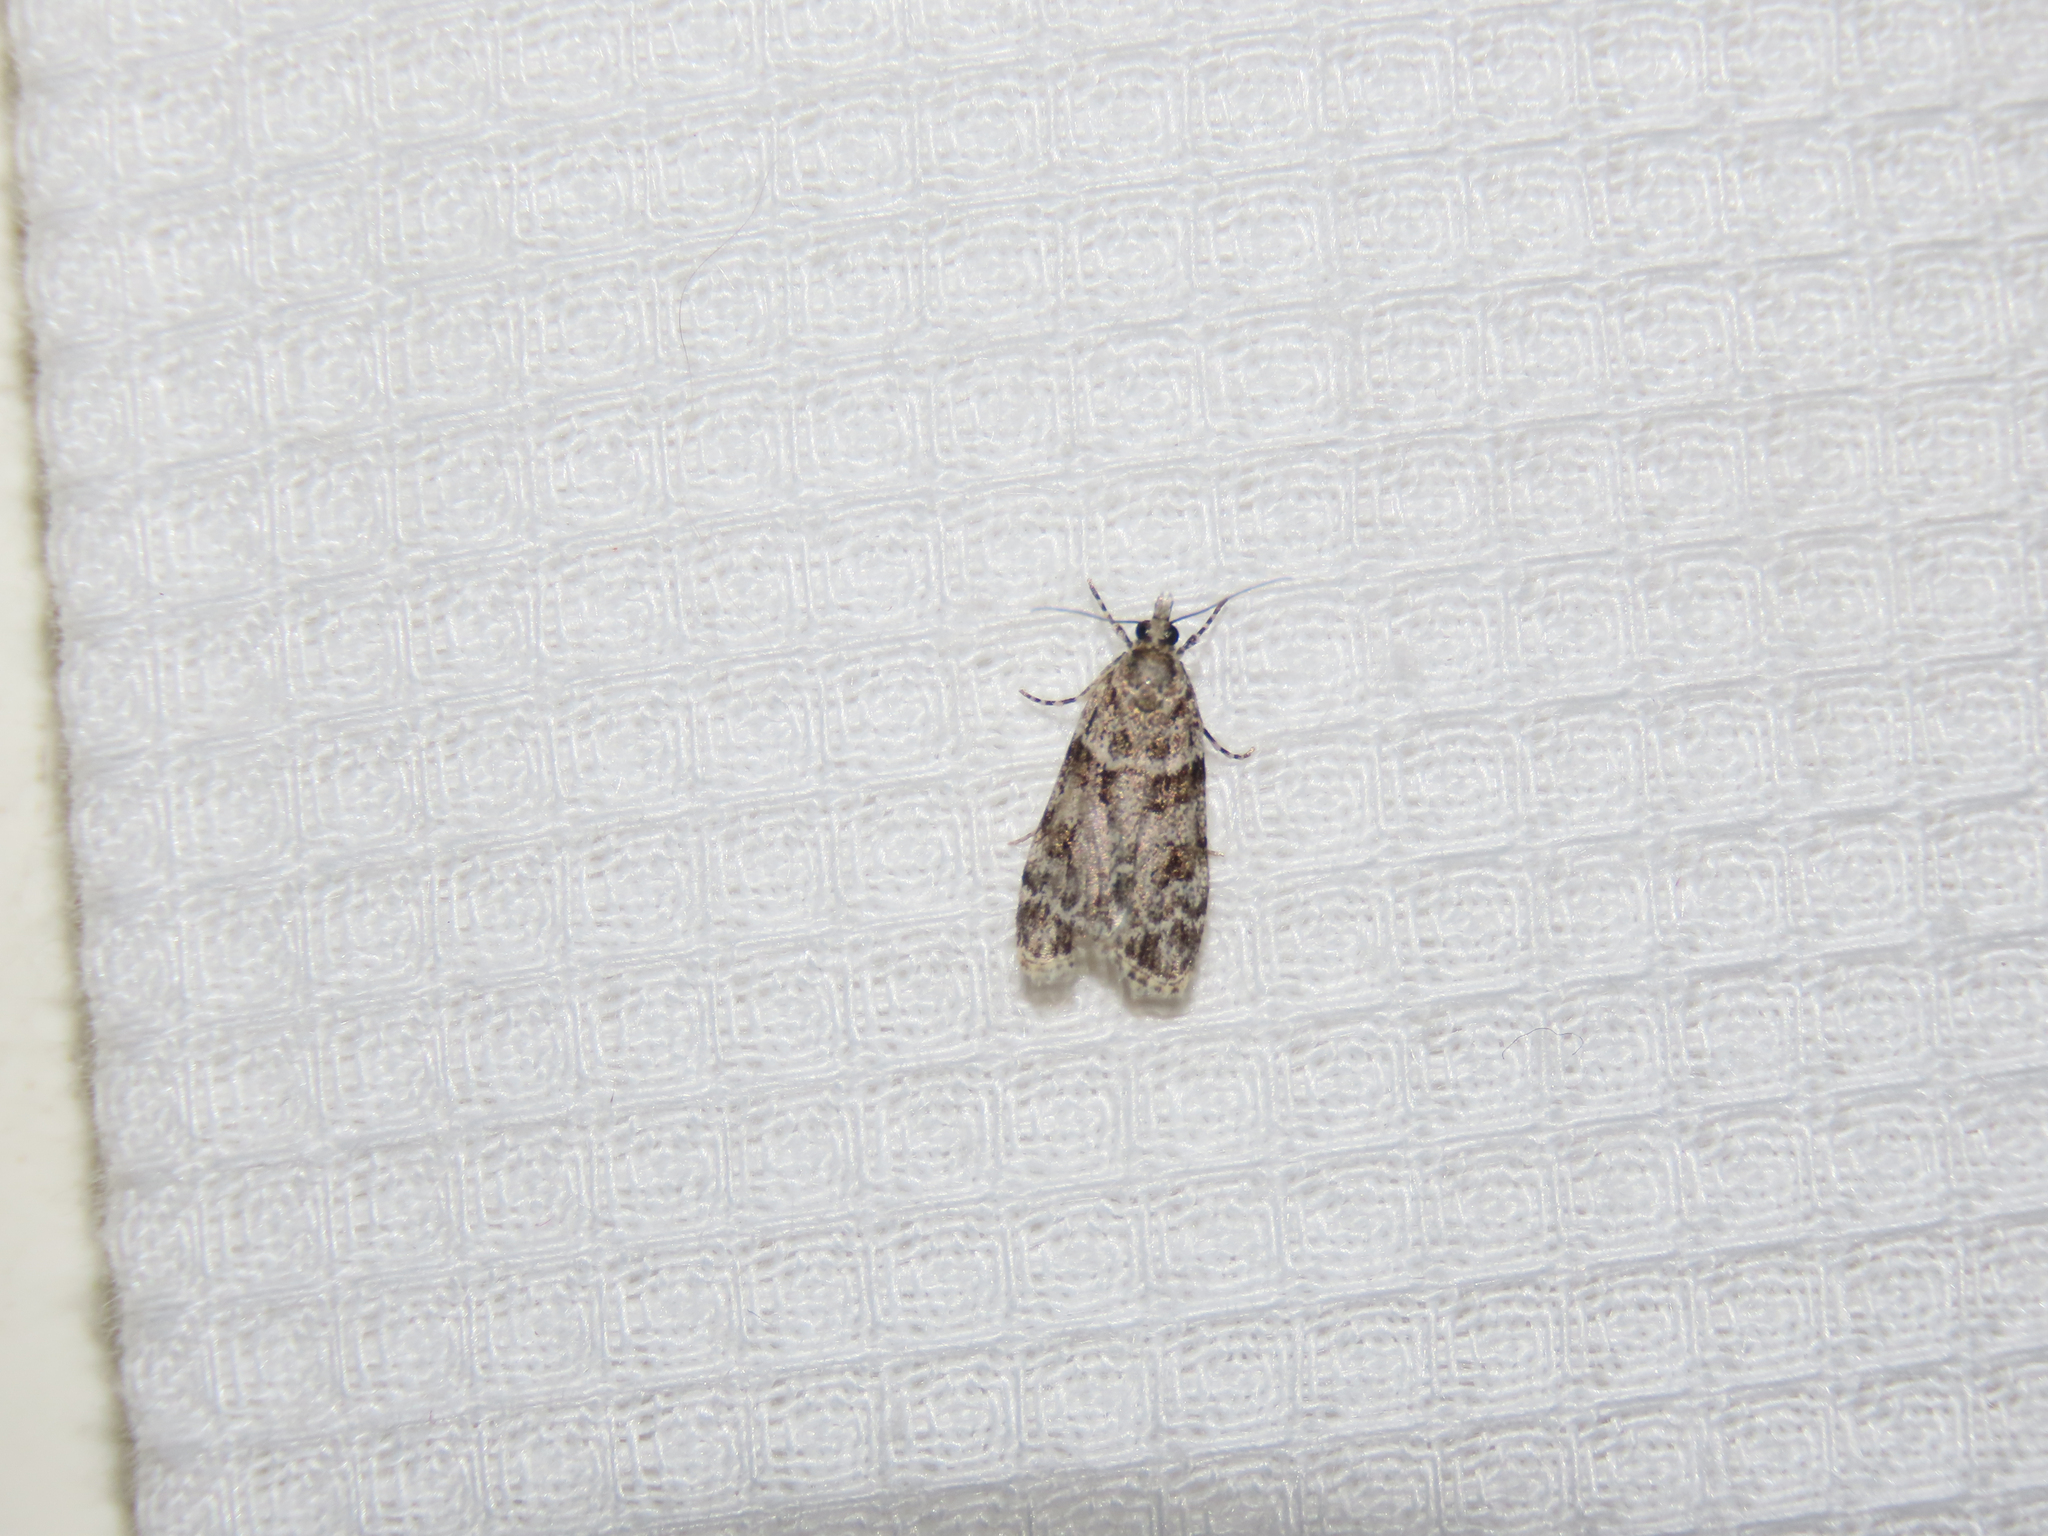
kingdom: Animalia
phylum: Arthropoda
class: Insecta
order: Lepidoptera
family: Crambidae
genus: Scoparia
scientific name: Scoparia biplagialis
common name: Double-striped scoparia moth
